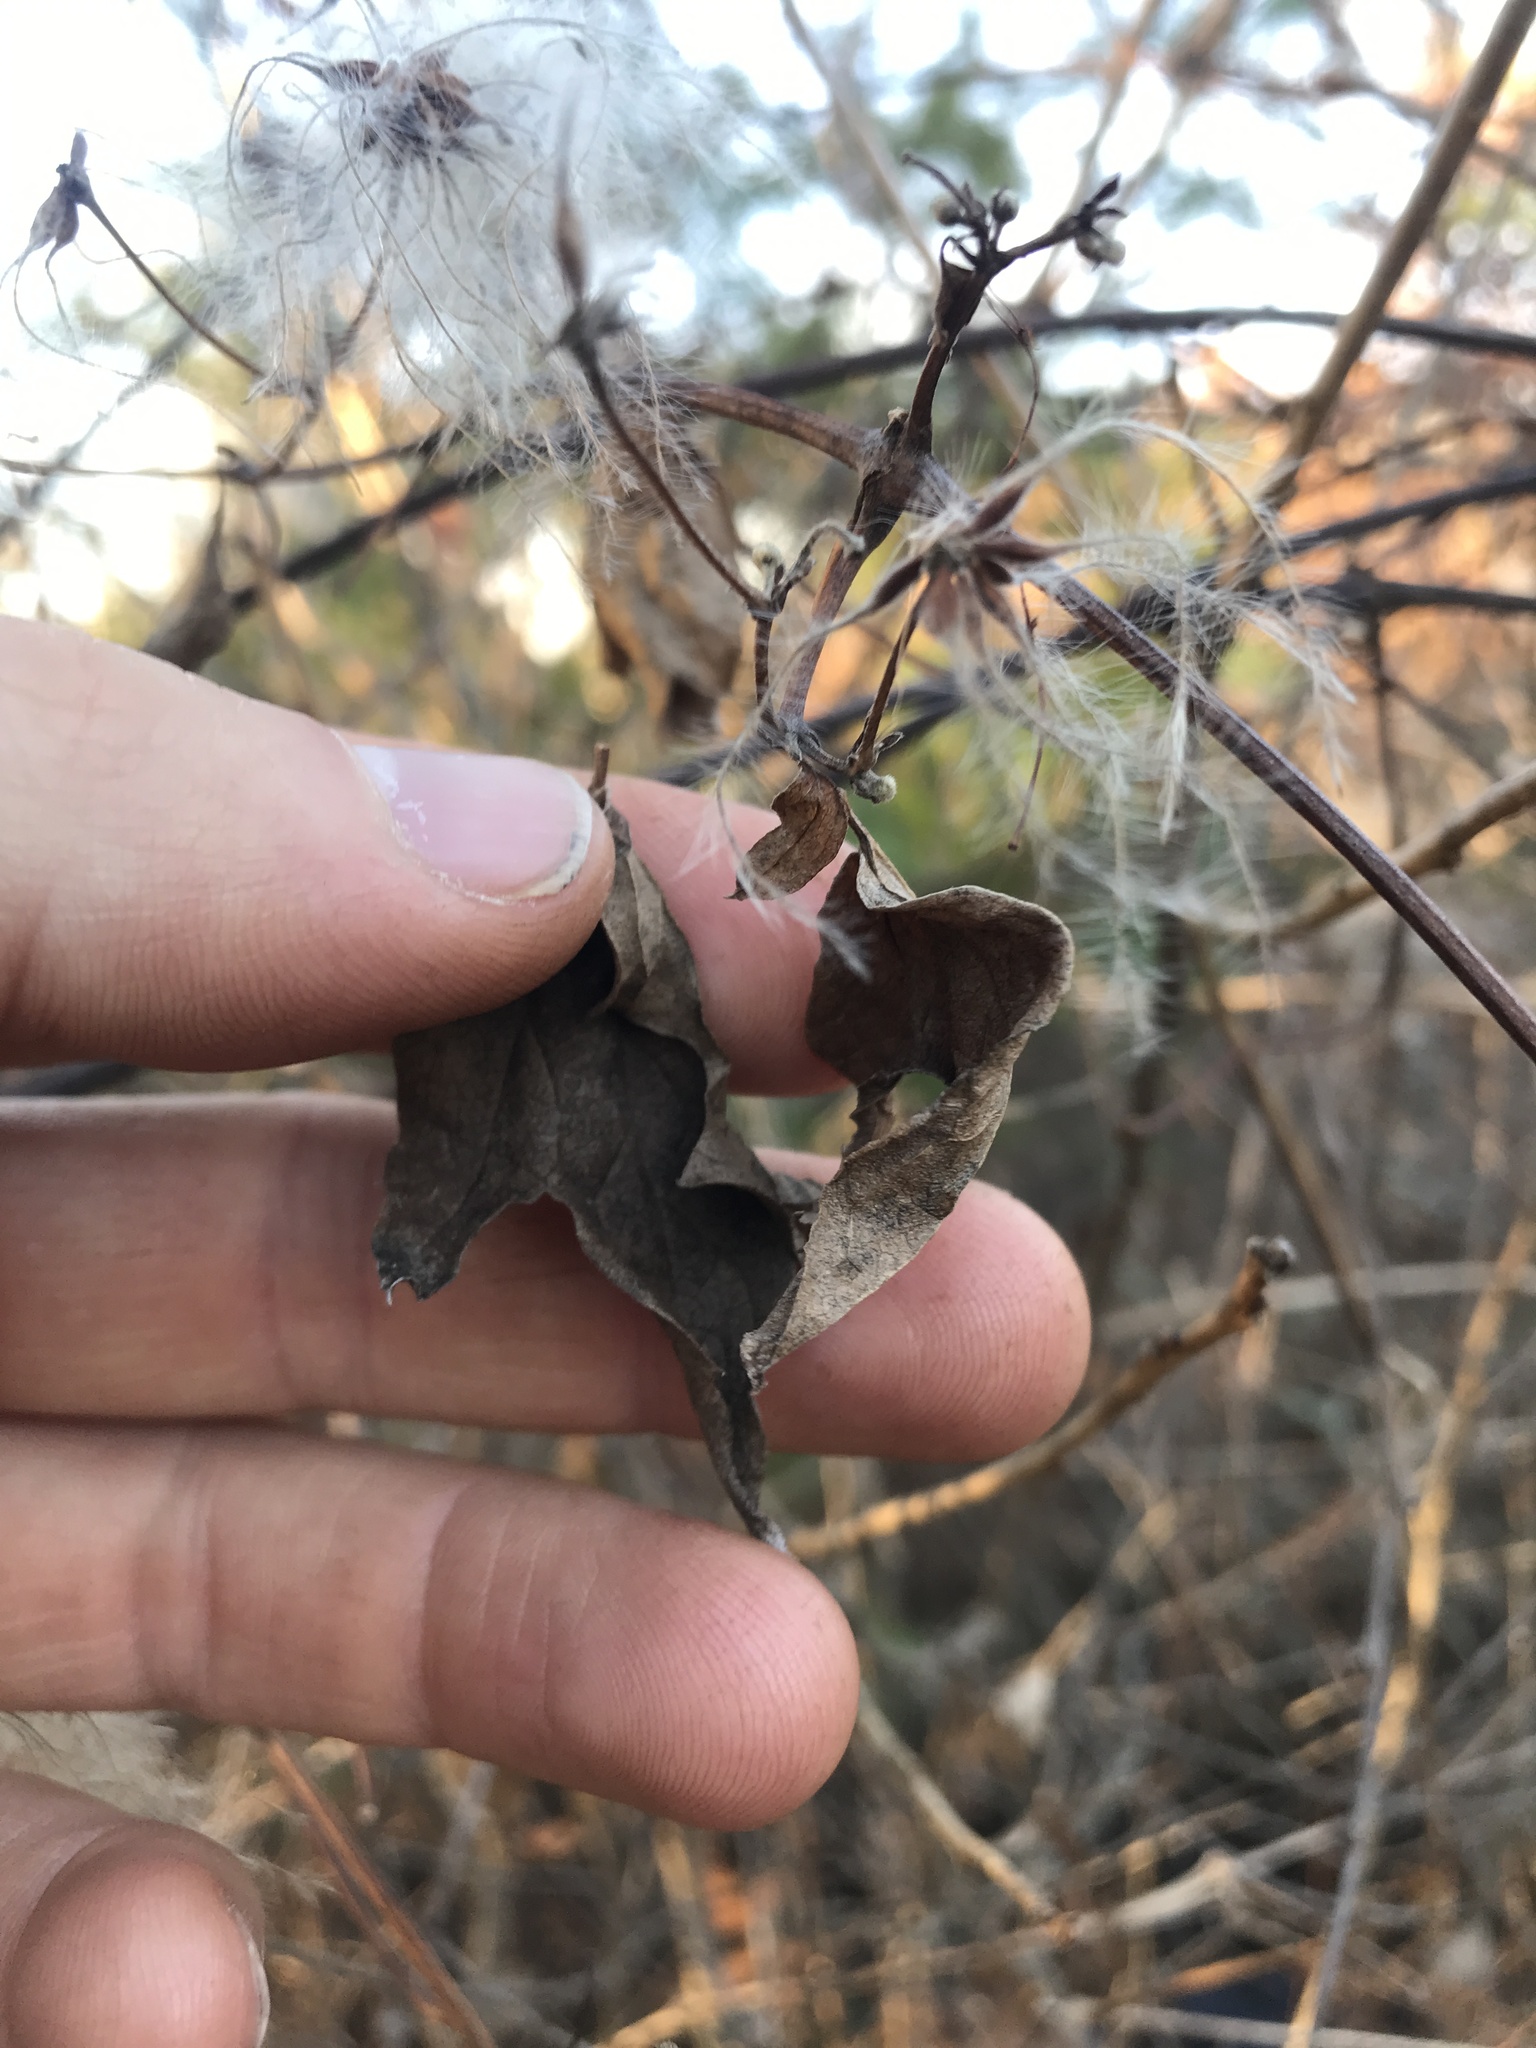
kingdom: Plantae
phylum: Tracheophyta
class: Magnoliopsida
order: Ranunculales
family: Ranunculaceae
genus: Clematis
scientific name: Clematis virginiana
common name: Virgin's-bower
